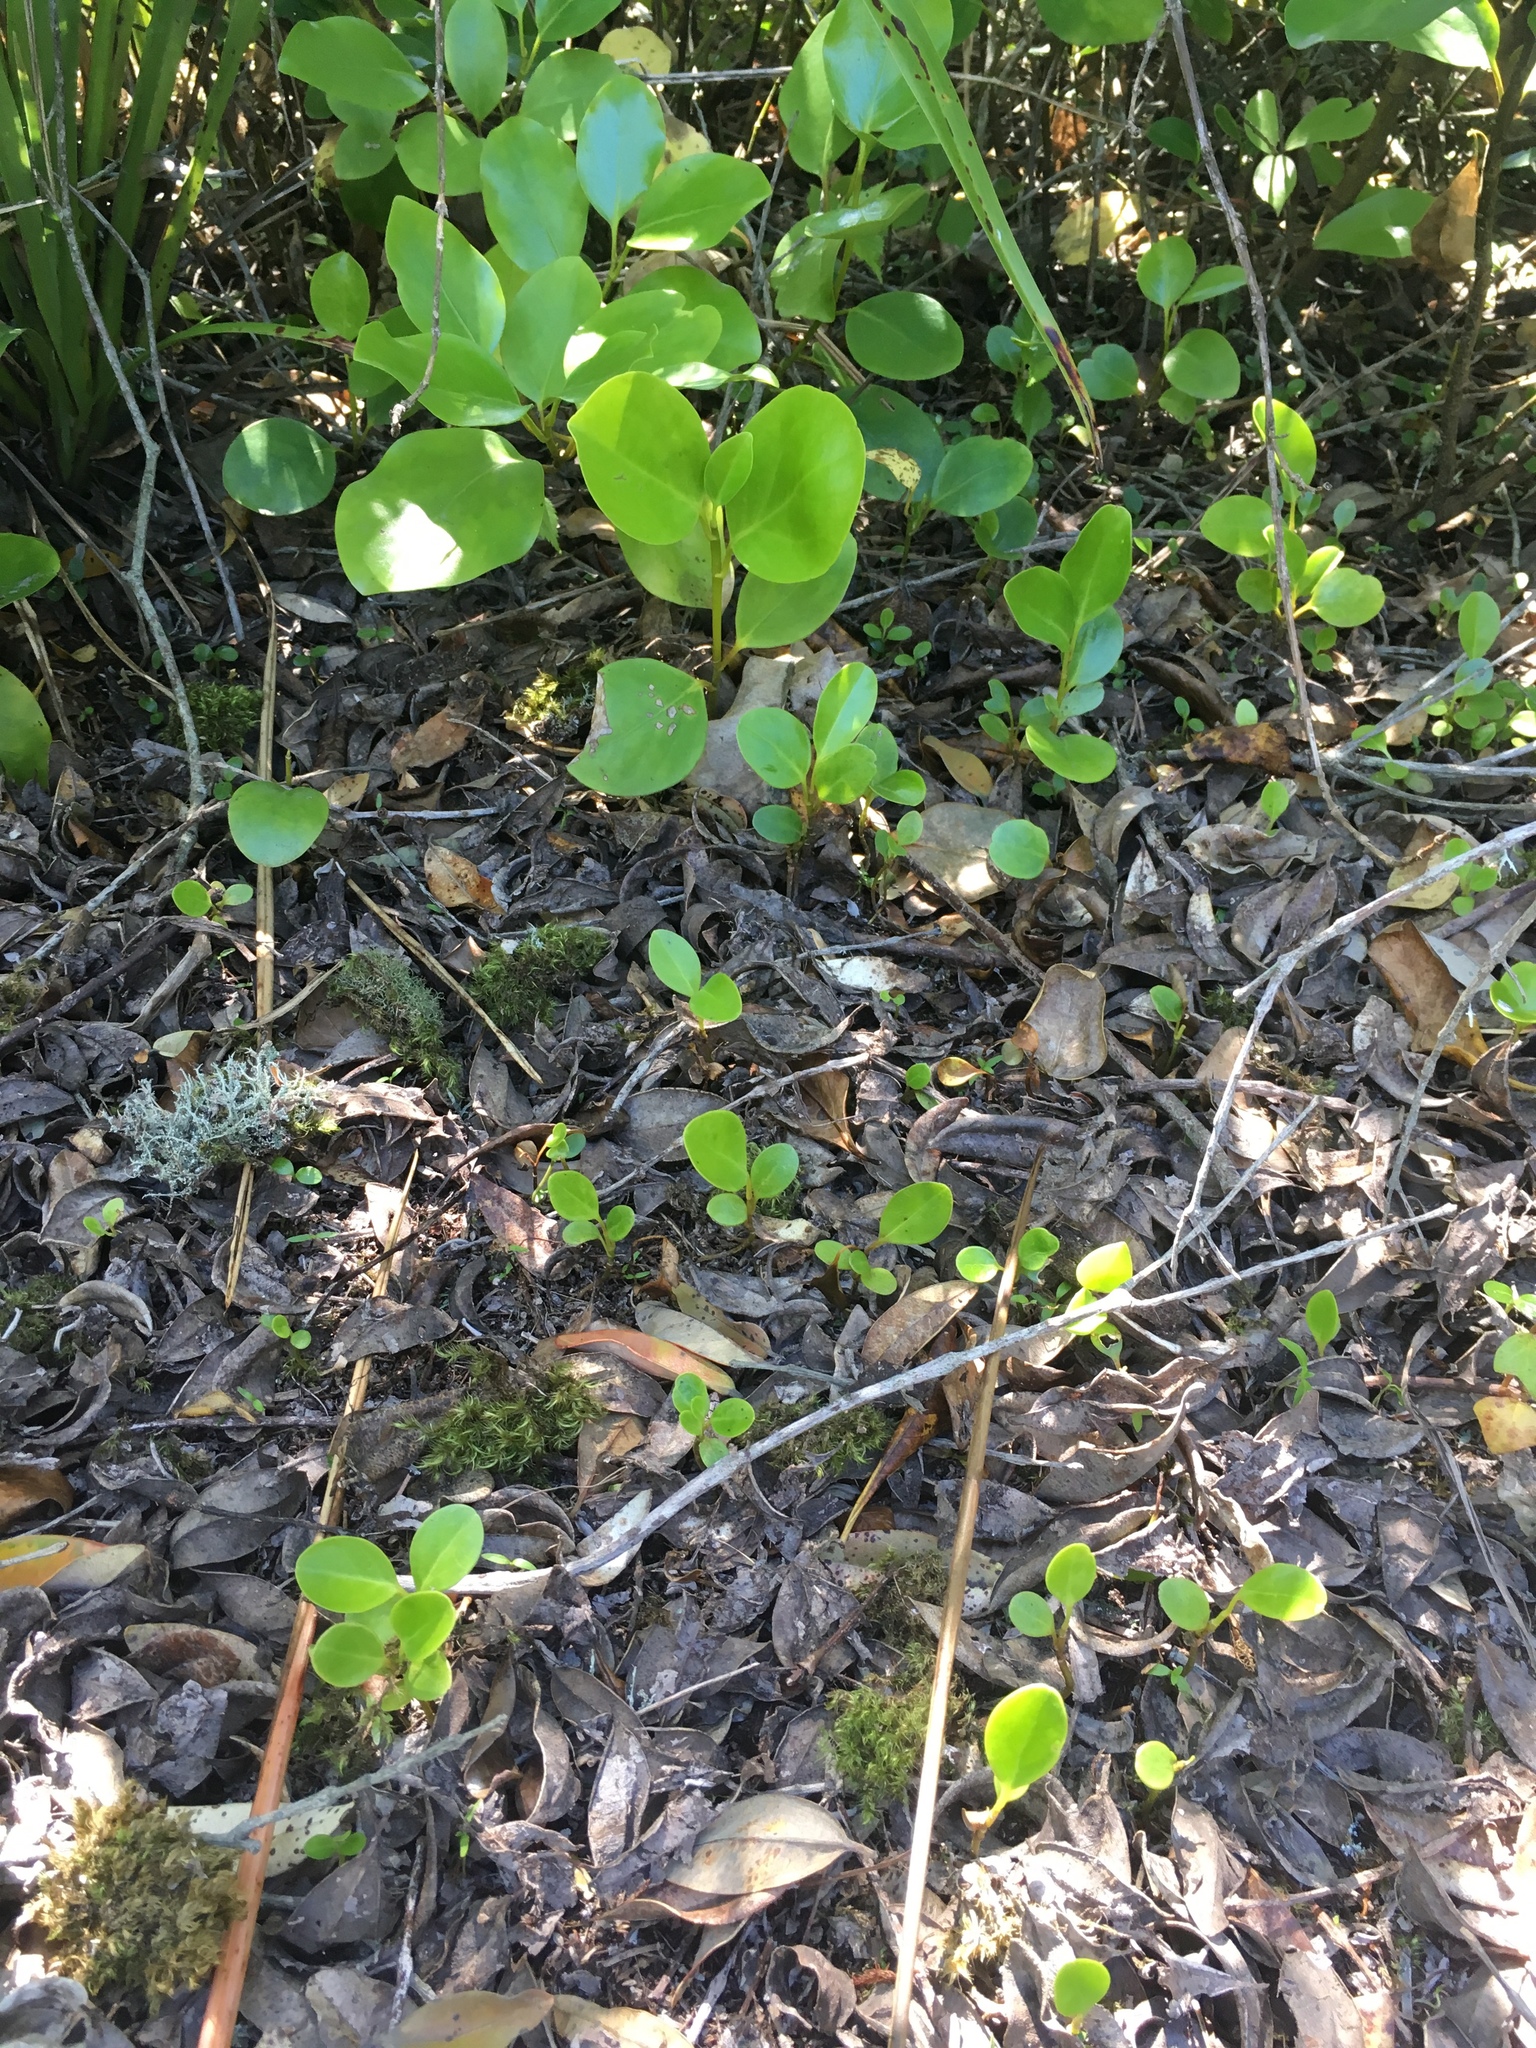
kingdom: Plantae
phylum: Tracheophyta
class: Magnoliopsida
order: Apiales
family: Griseliniaceae
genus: Griselinia
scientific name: Griselinia littoralis
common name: New zealand broadleaf
